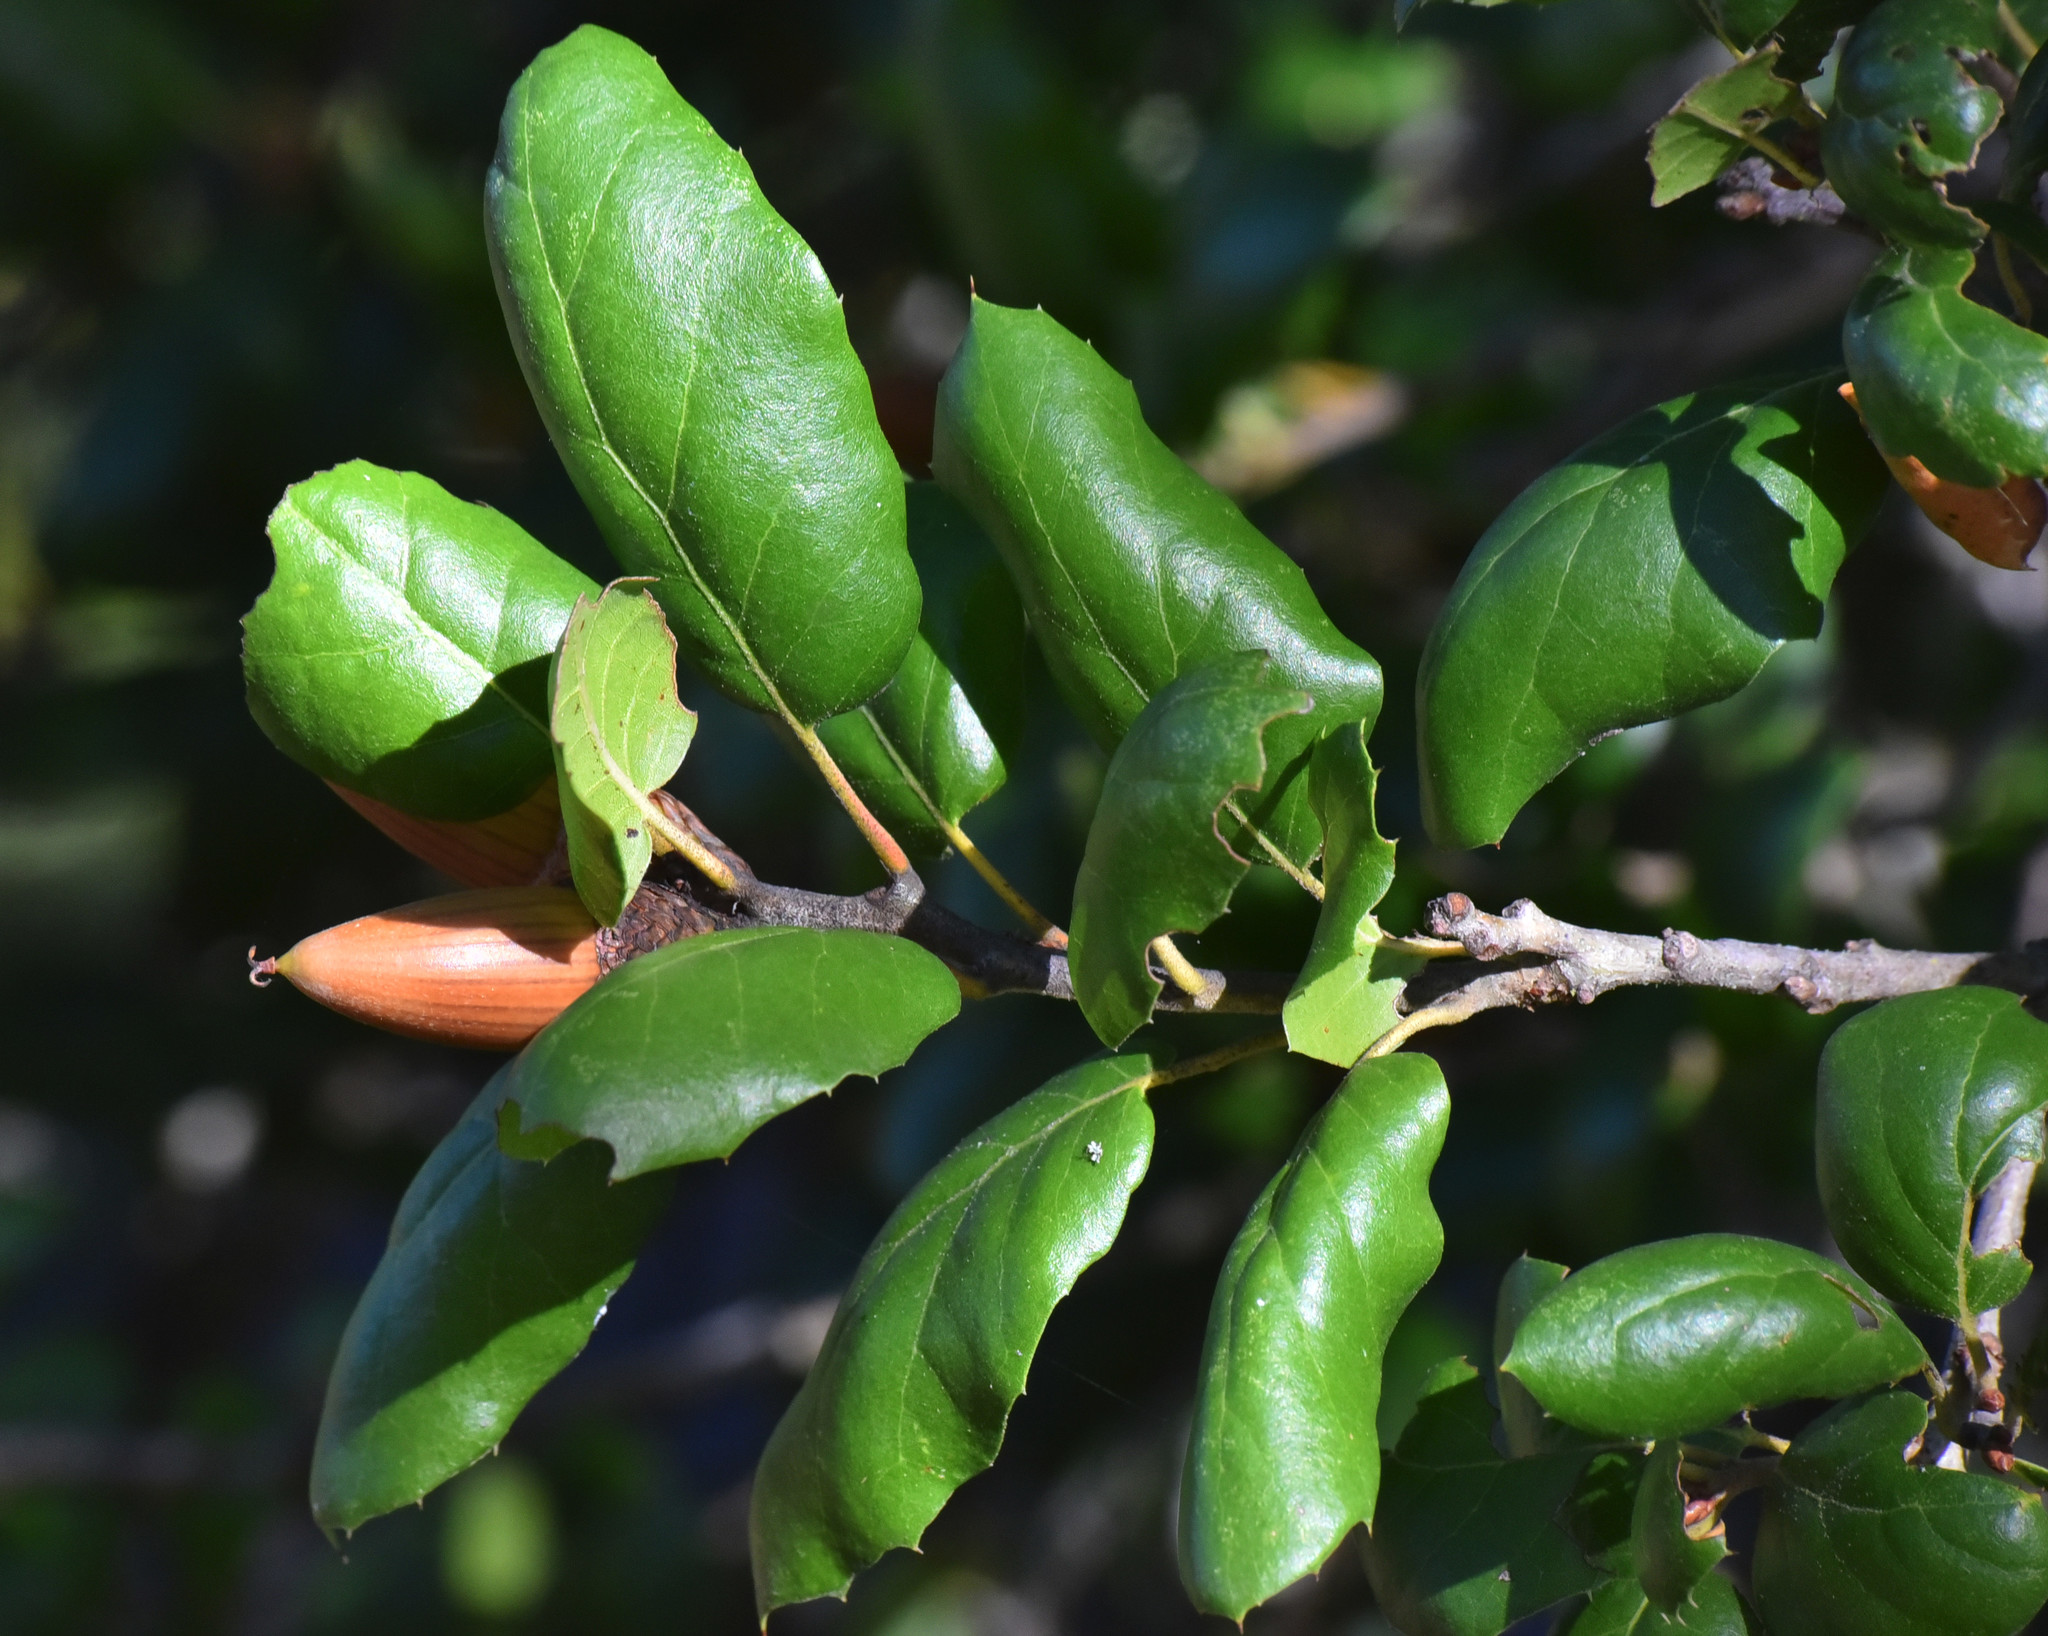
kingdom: Plantae
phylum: Tracheophyta
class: Magnoliopsida
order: Fagales
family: Fagaceae
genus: Quercus
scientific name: Quercus agrifolia
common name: California live oak
